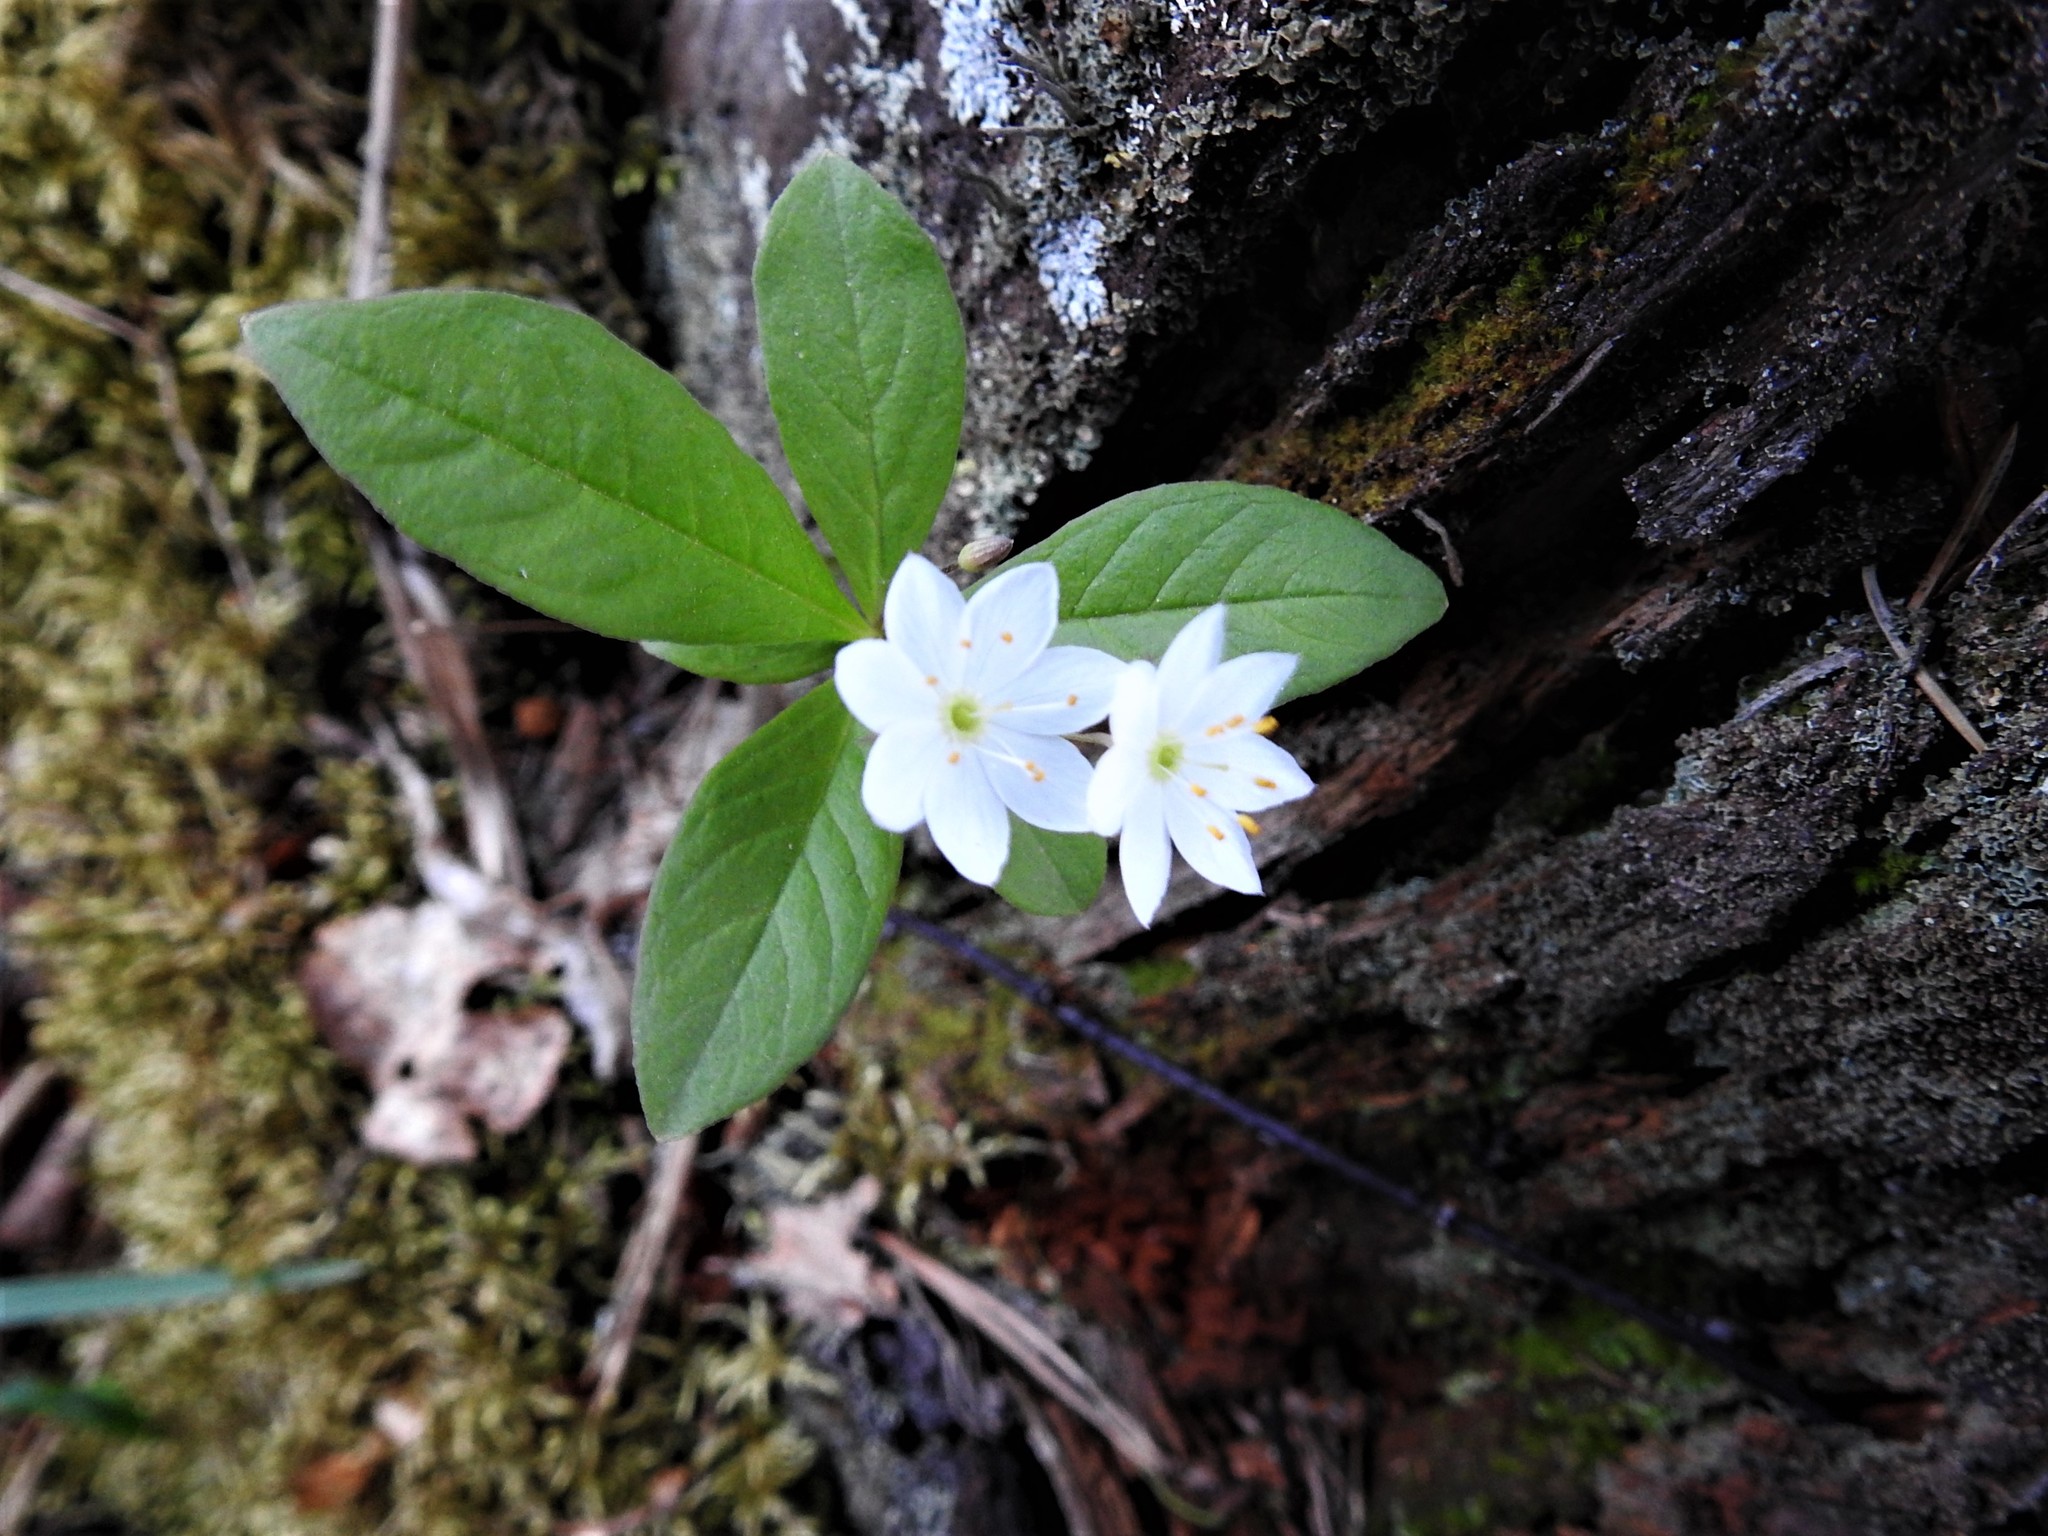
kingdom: Plantae
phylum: Tracheophyta
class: Magnoliopsida
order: Ericales
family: Primulaceae
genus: Lysimachia
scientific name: Lysimachia europaea
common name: Arctic starflower
